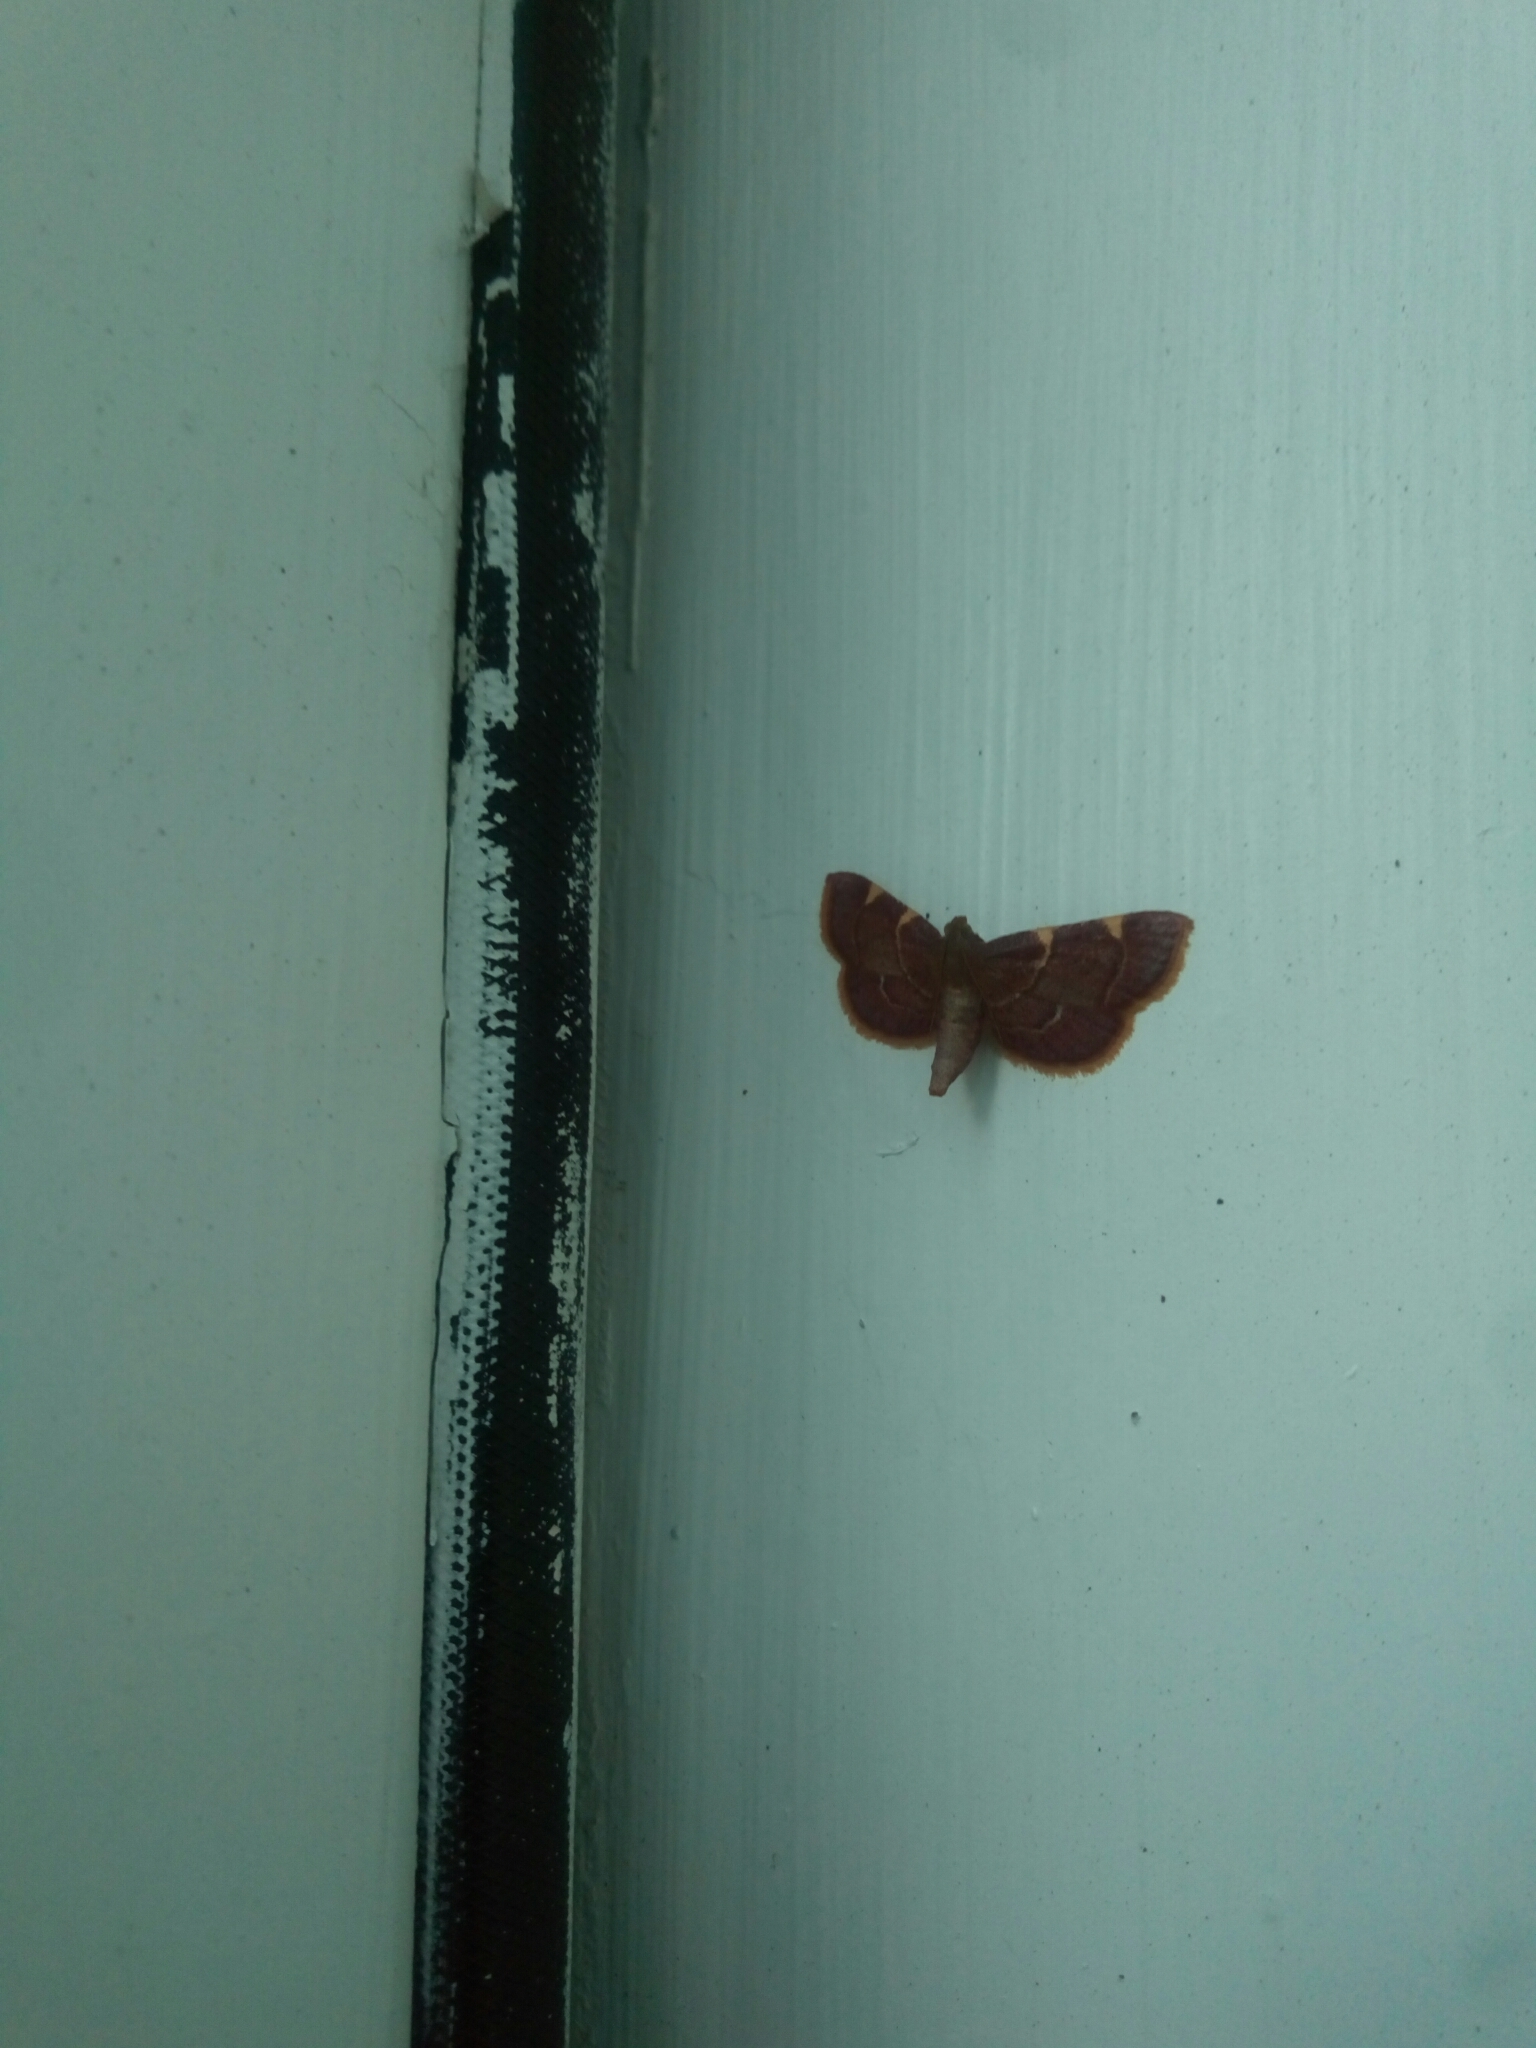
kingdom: Animalia
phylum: Arthropoda
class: Insecta
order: Lepidoptera
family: Pyralidae
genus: Hypsopygia
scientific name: Hypsopygia olinalis
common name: Yellow-fringed dolichomia moth
